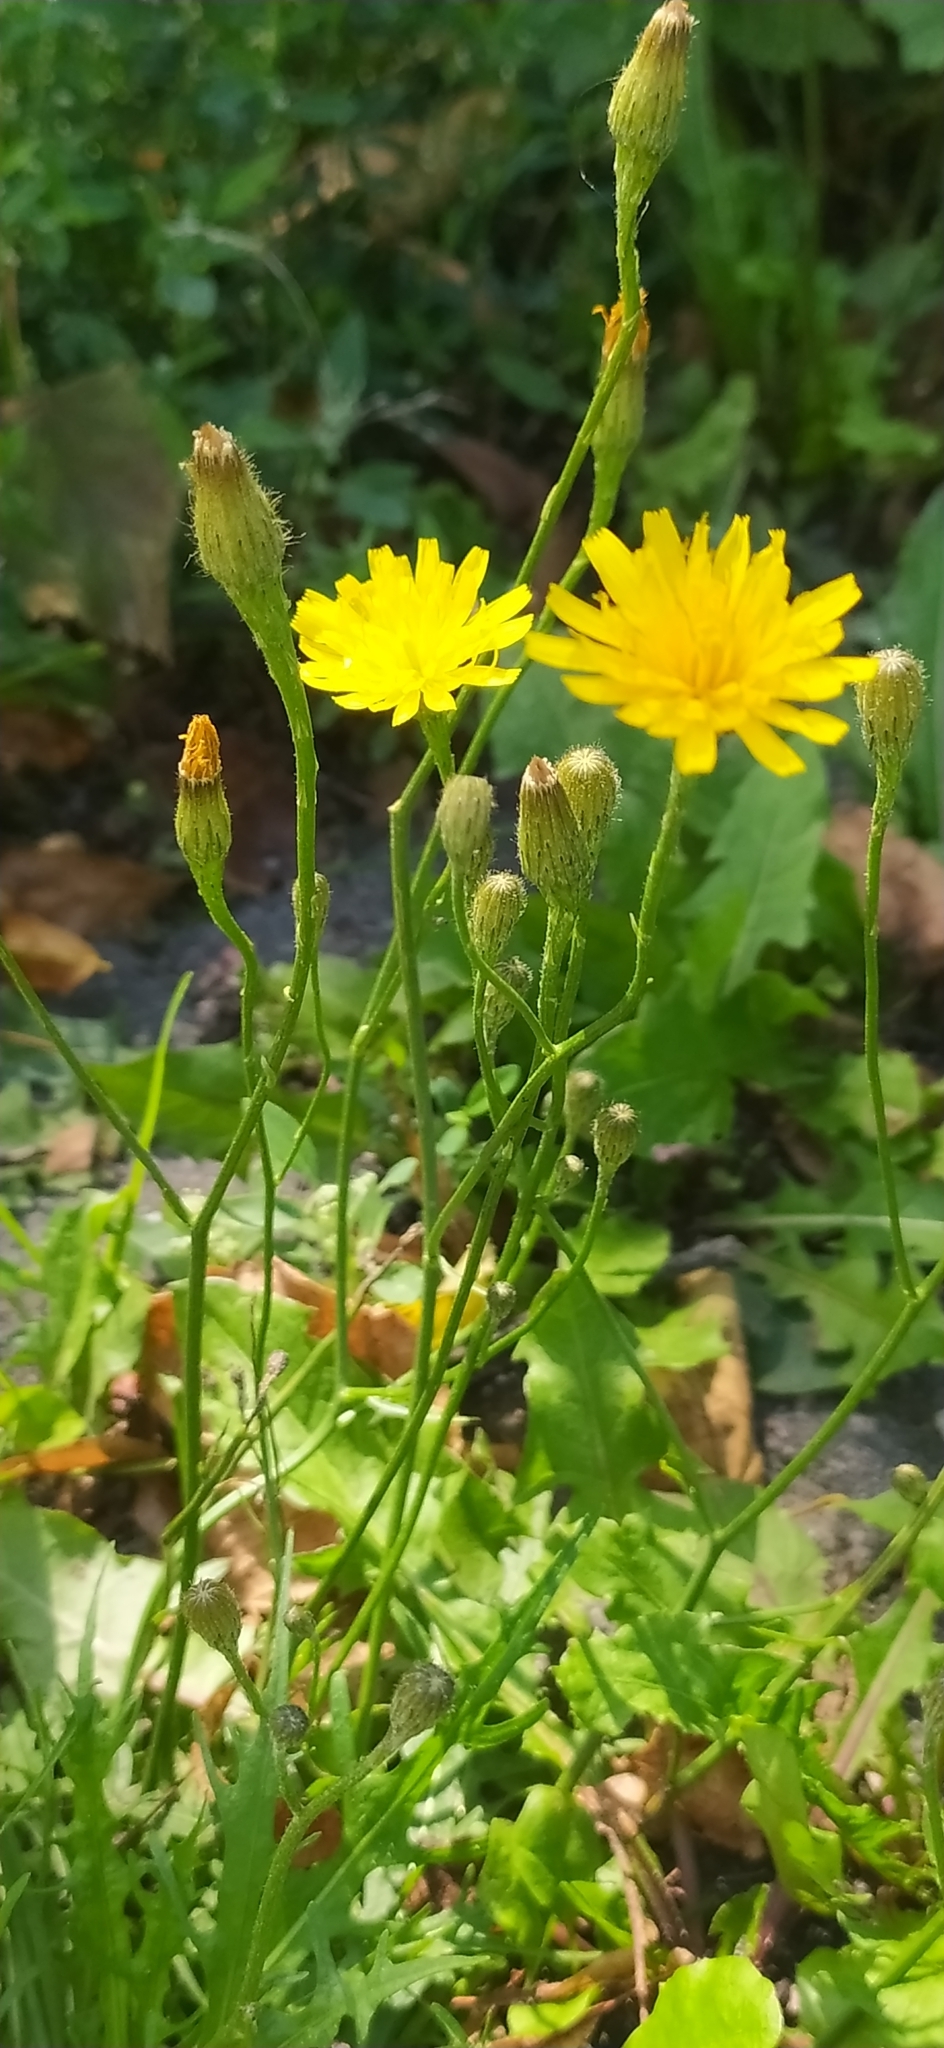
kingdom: Plantae
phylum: Tracheophyta
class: Magnoliopsida
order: Asterales
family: Asteraceae
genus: Scorzoneroides
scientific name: Scorzoneroides autumnalis
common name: Autumn hawkbit
